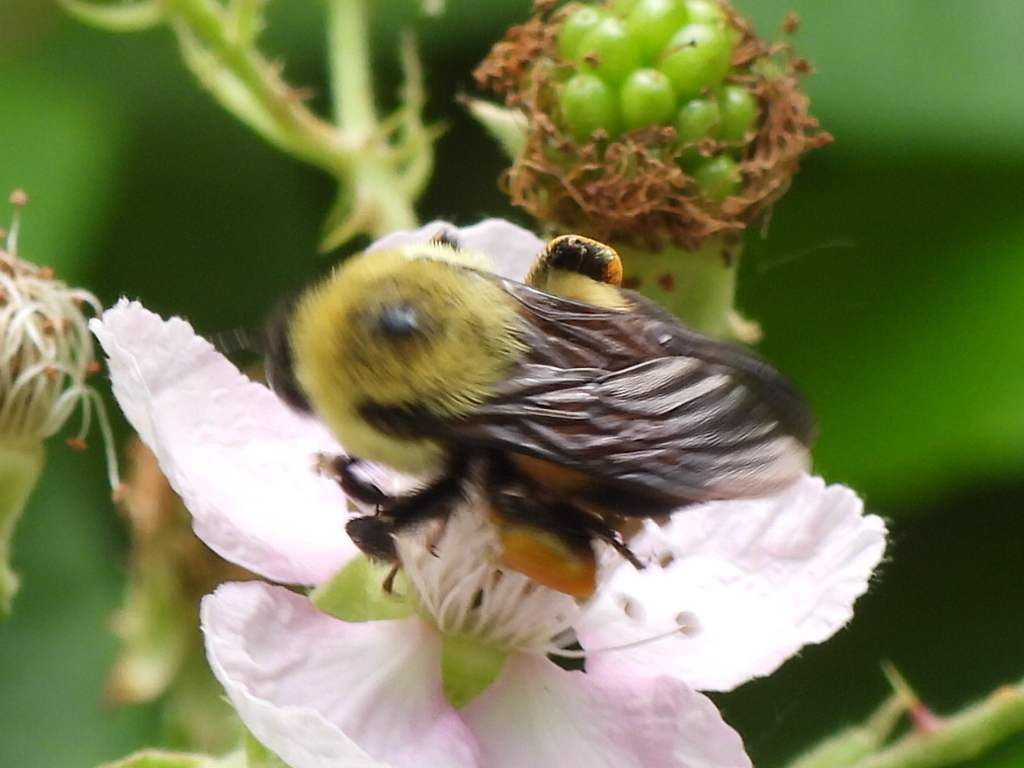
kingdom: Animalia
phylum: Arthropoda
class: Insecta
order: Hymenoptera
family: Apidae
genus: Bombus
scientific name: Bombus griseocollis
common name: Brown-belted bumble bee
